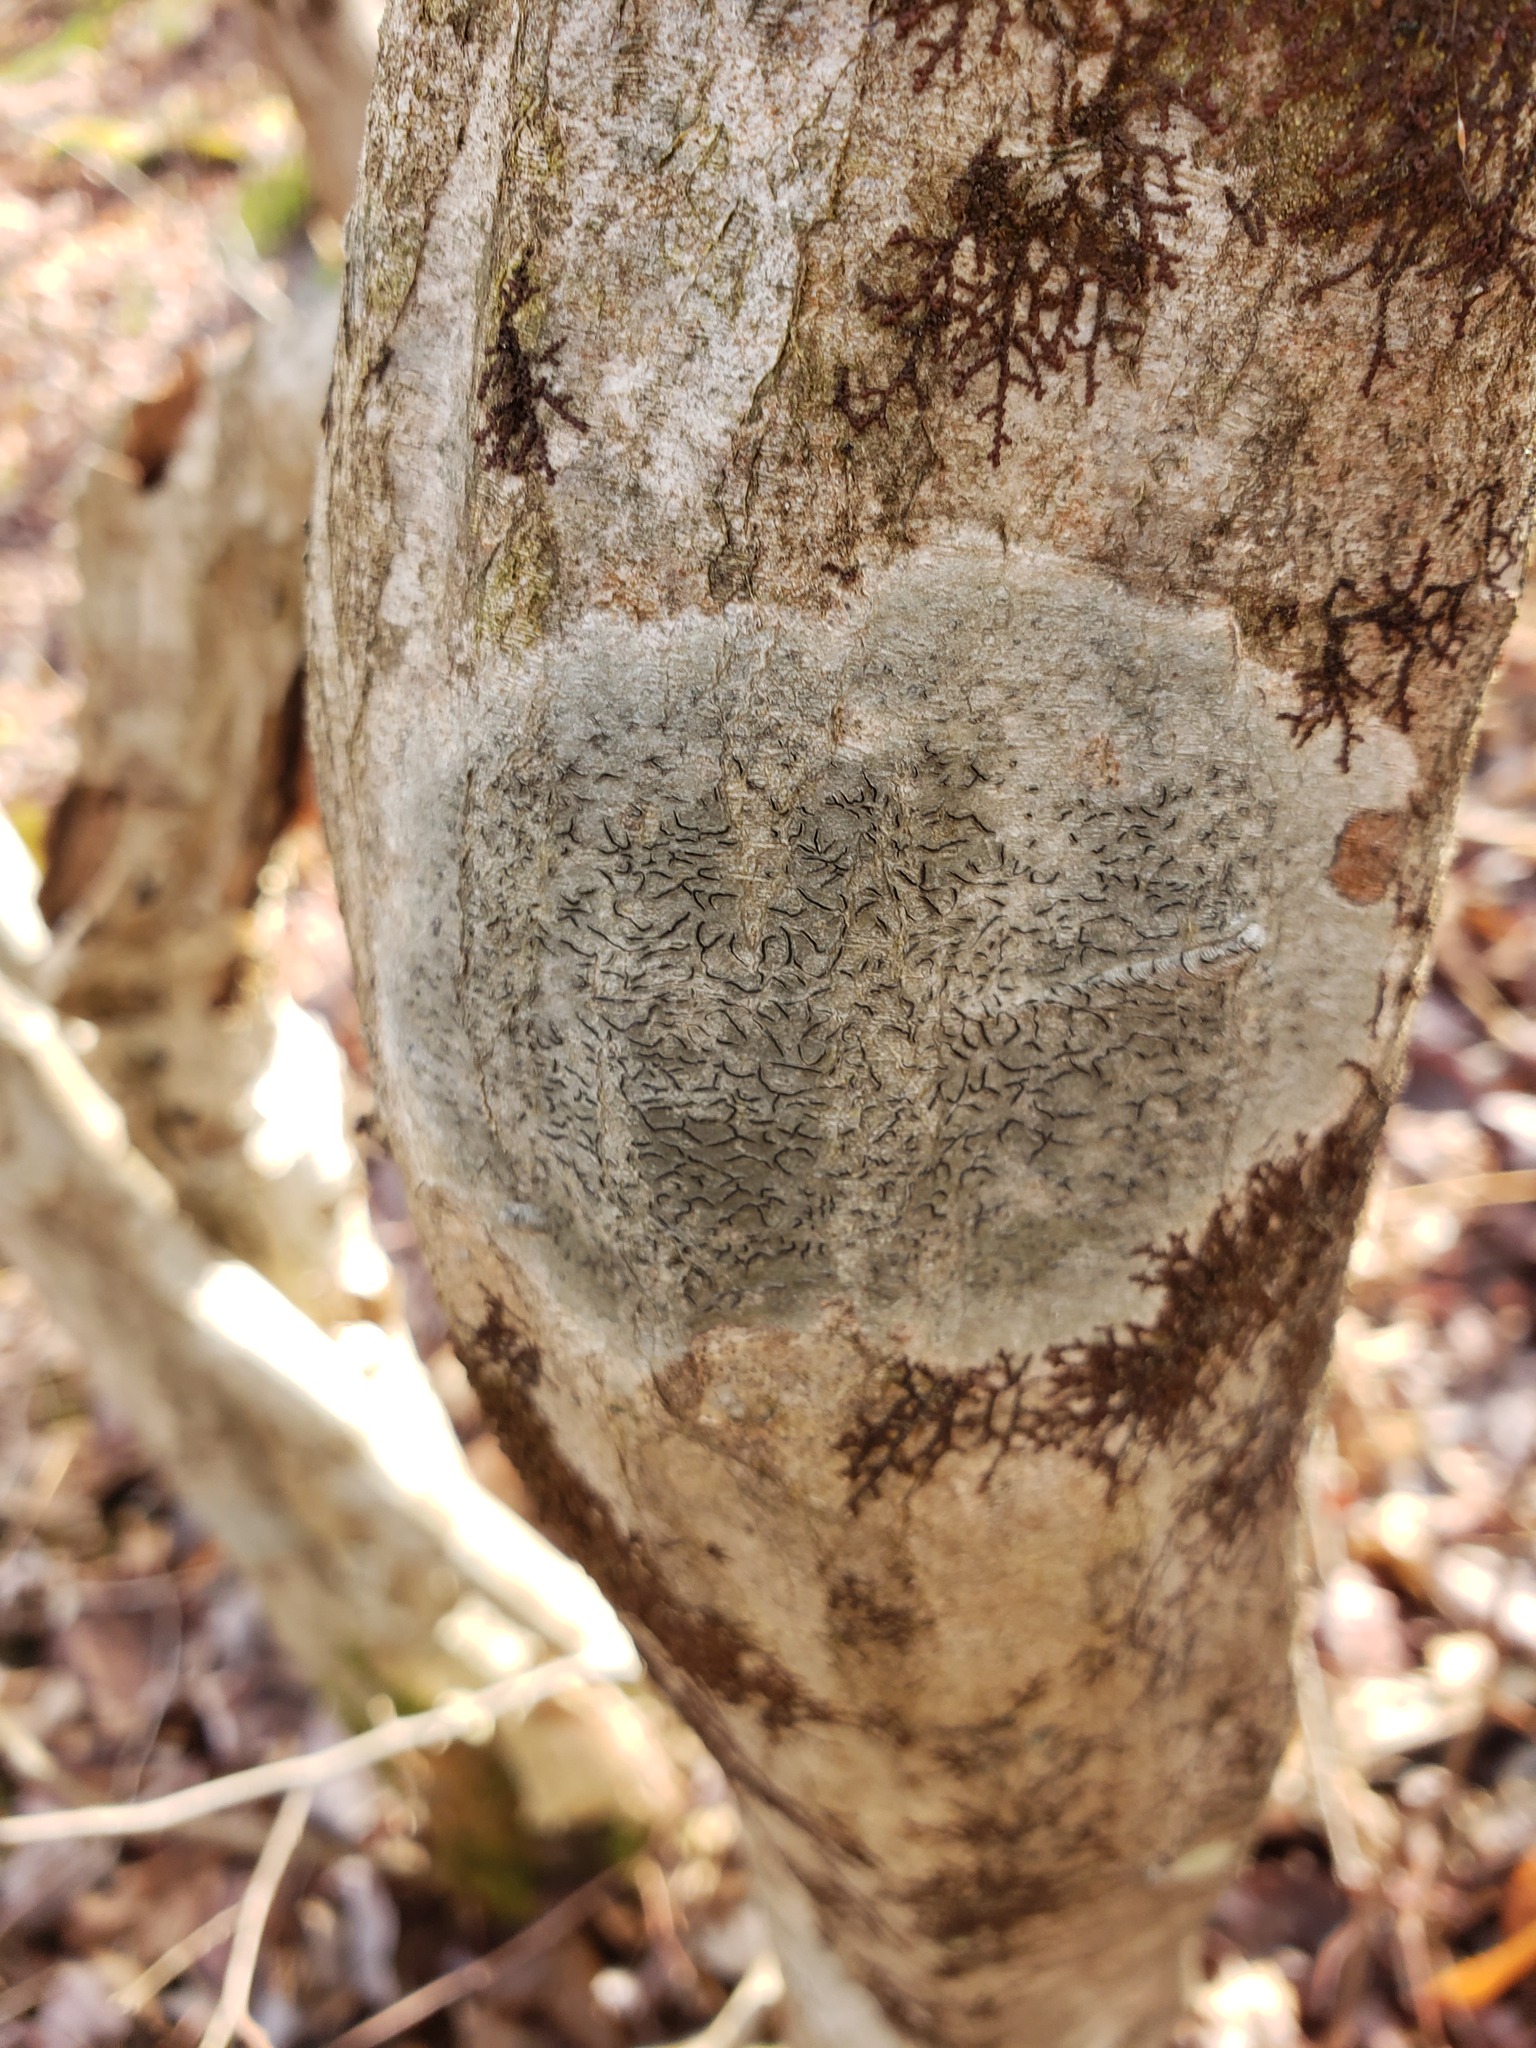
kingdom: Fungi
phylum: Ascomycota
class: Lecanoromycetes
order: Ostropales
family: Graphidaceae
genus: Graphis
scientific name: Graphis scripta
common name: Script lichen
